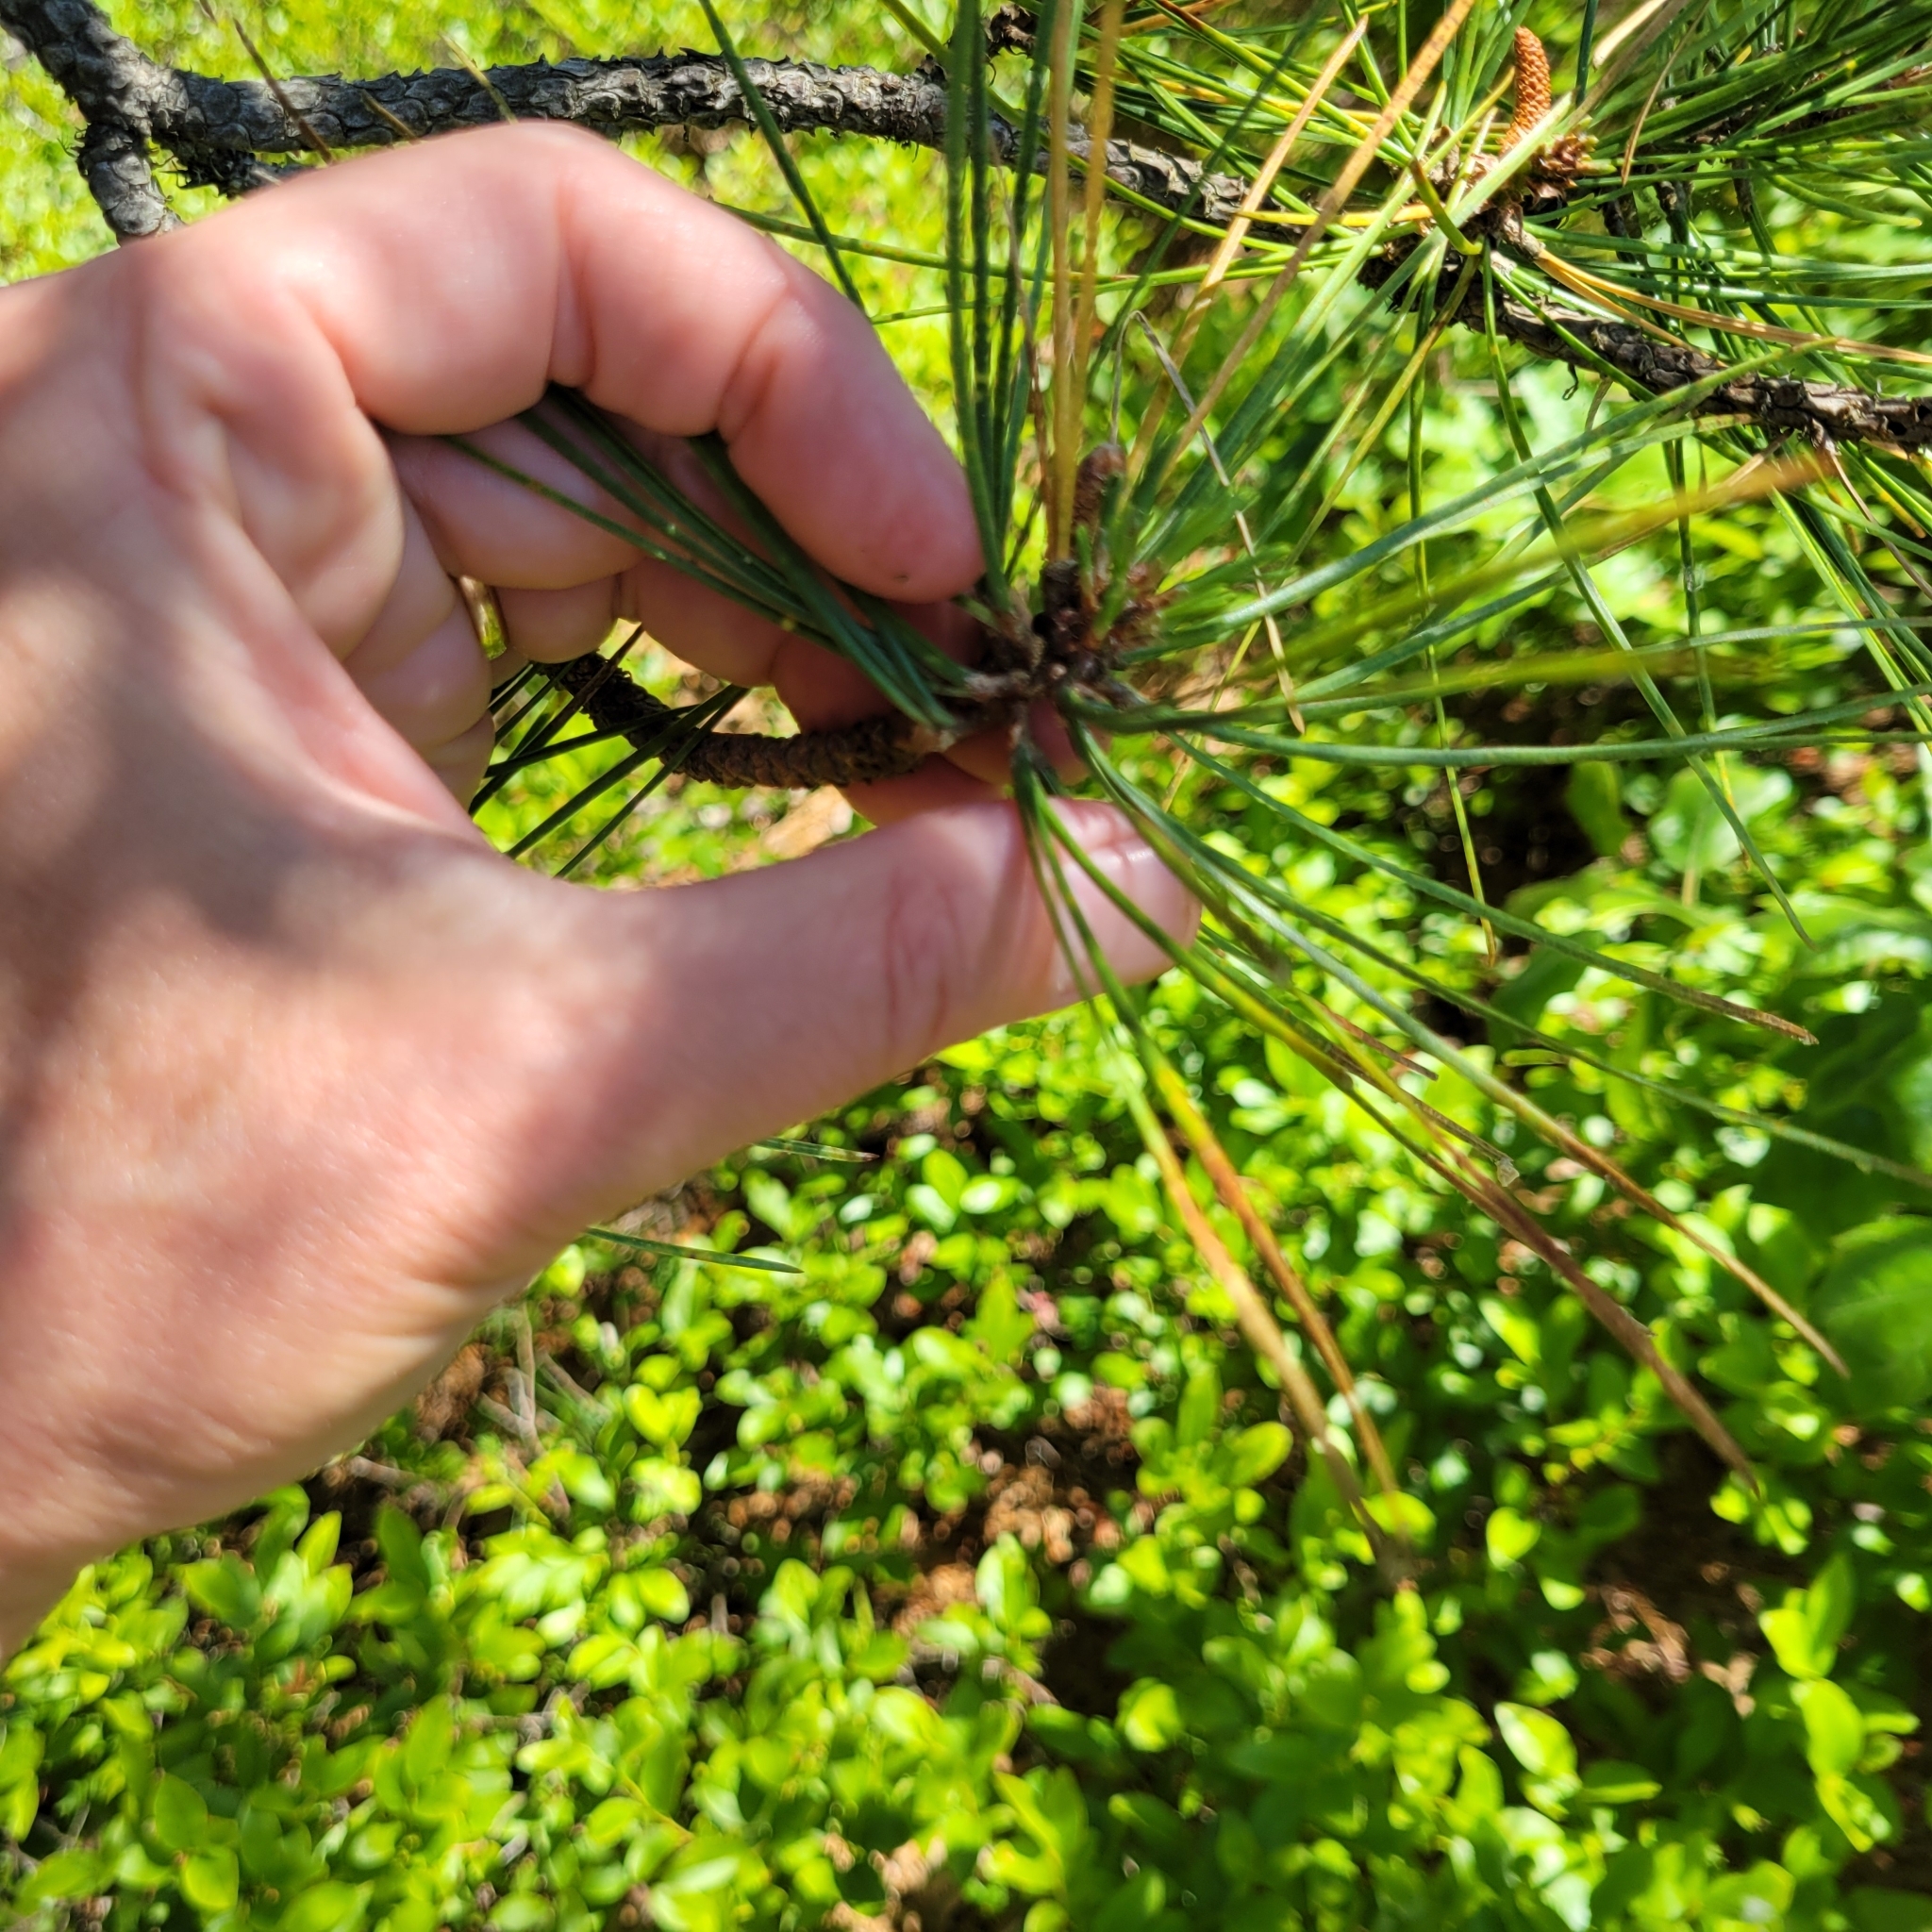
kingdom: Plantae
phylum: Tracheophyta
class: Pinopsida
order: Pinales
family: Pinaceae
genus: Pinus
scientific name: Pinus rigida
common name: Pitch pine
